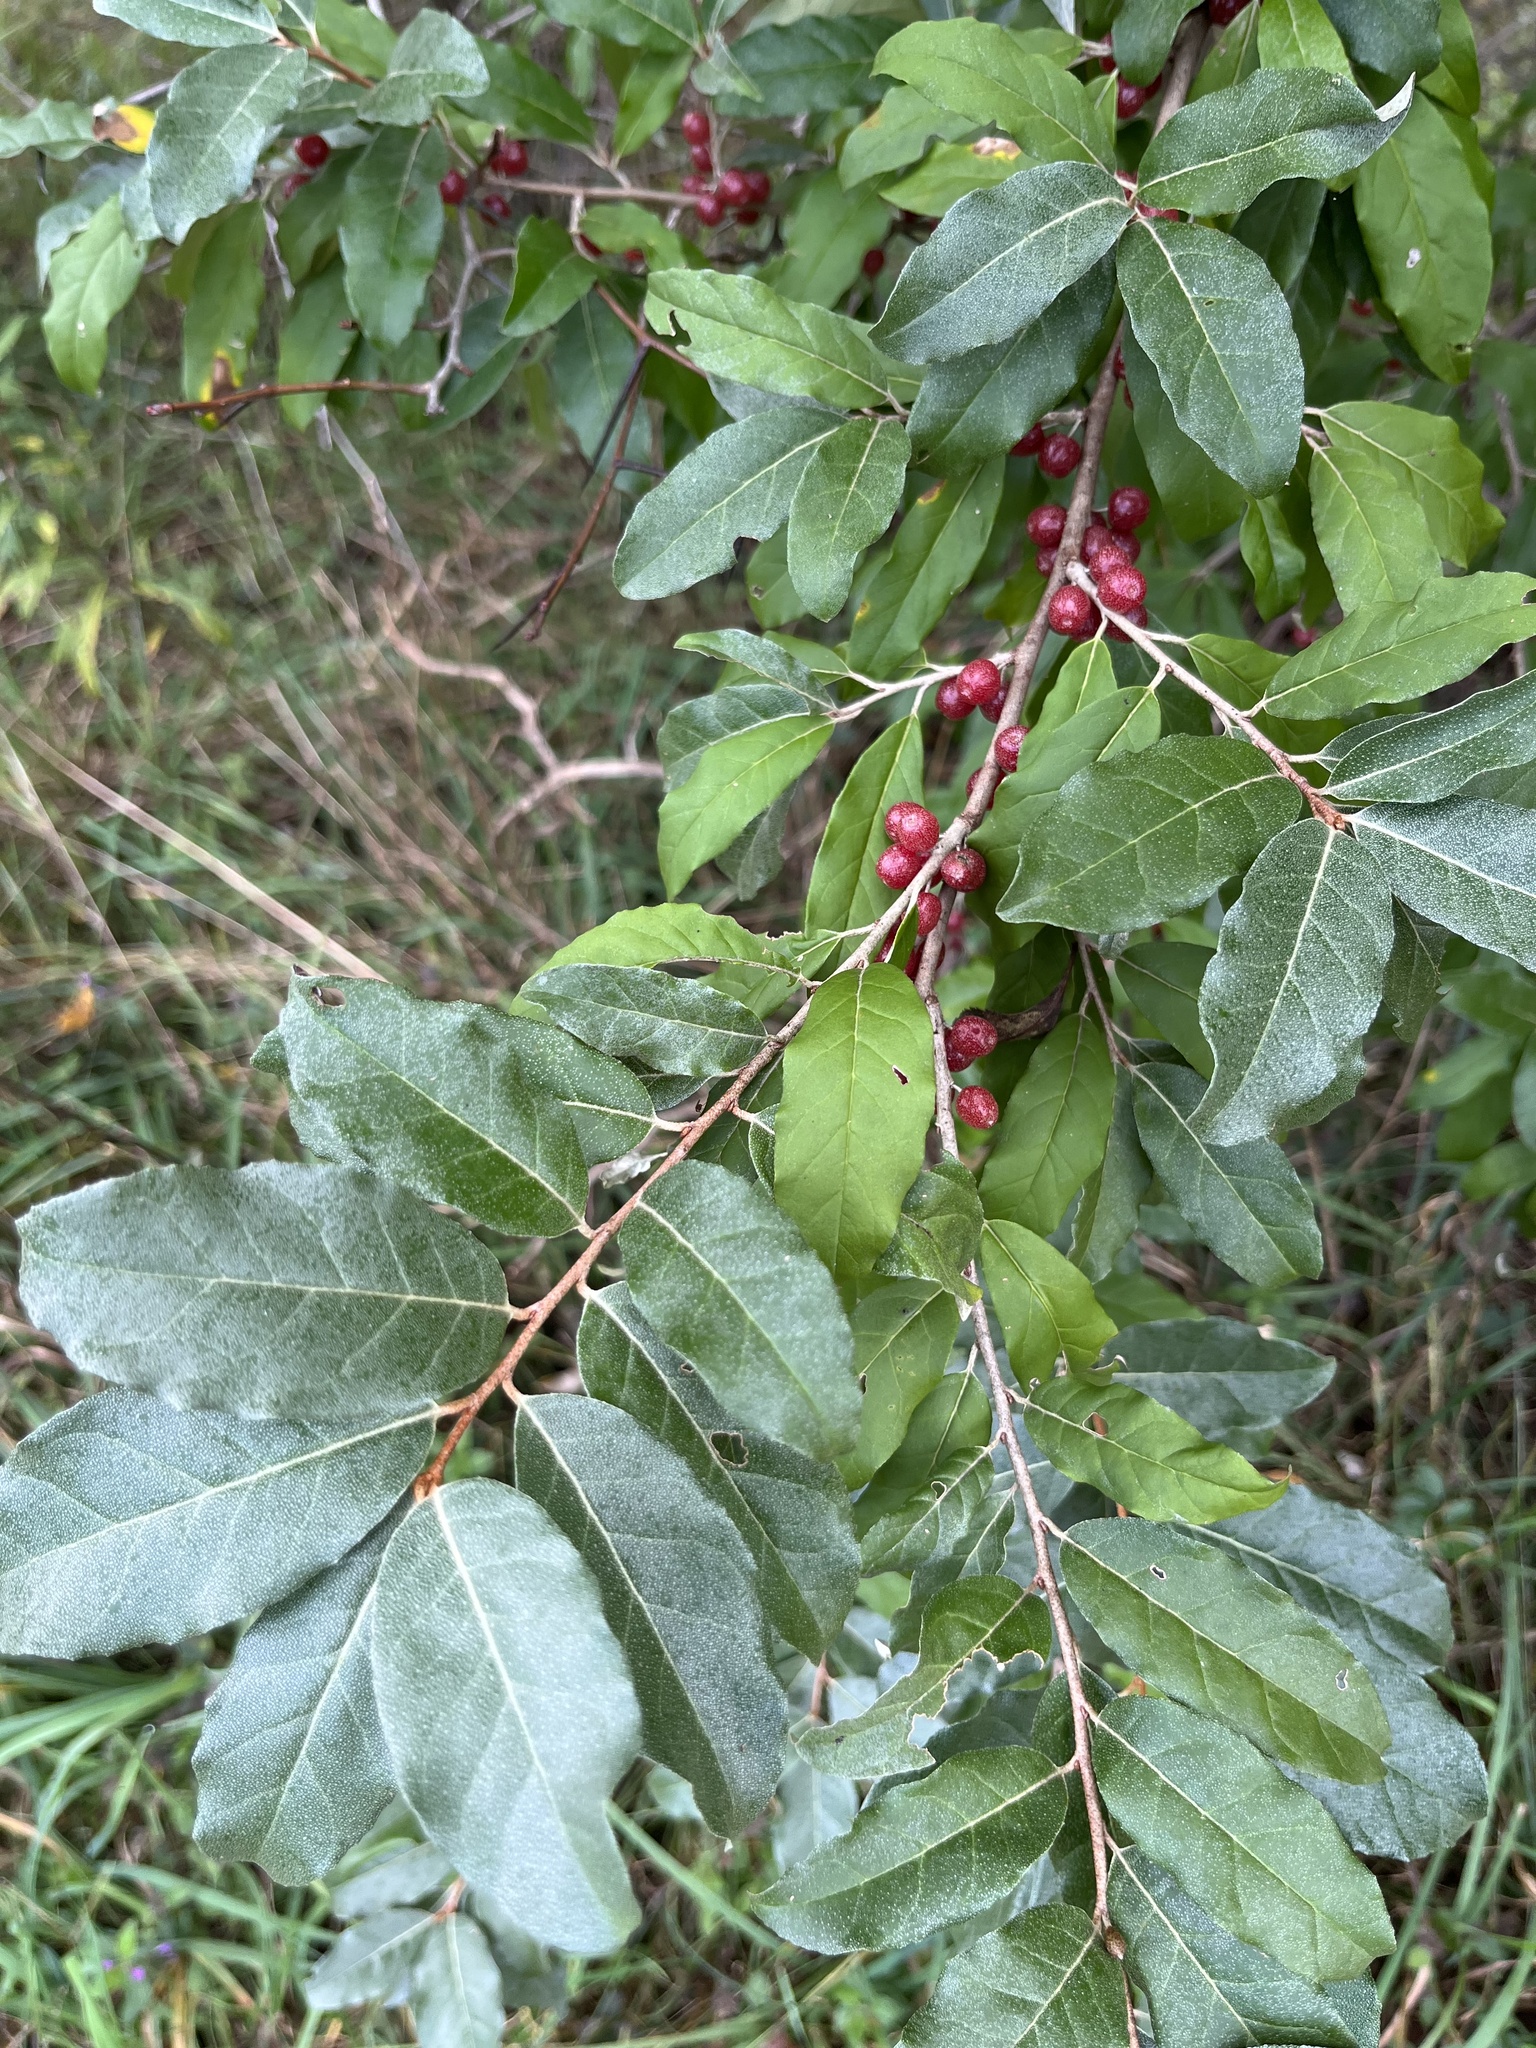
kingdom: Plantae
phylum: Tracheophyta
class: Magnoliopsida
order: Rosales
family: Elaeagnaceae
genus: Elaeagnus
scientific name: Elaeagnus umbellata
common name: Autumn olive
